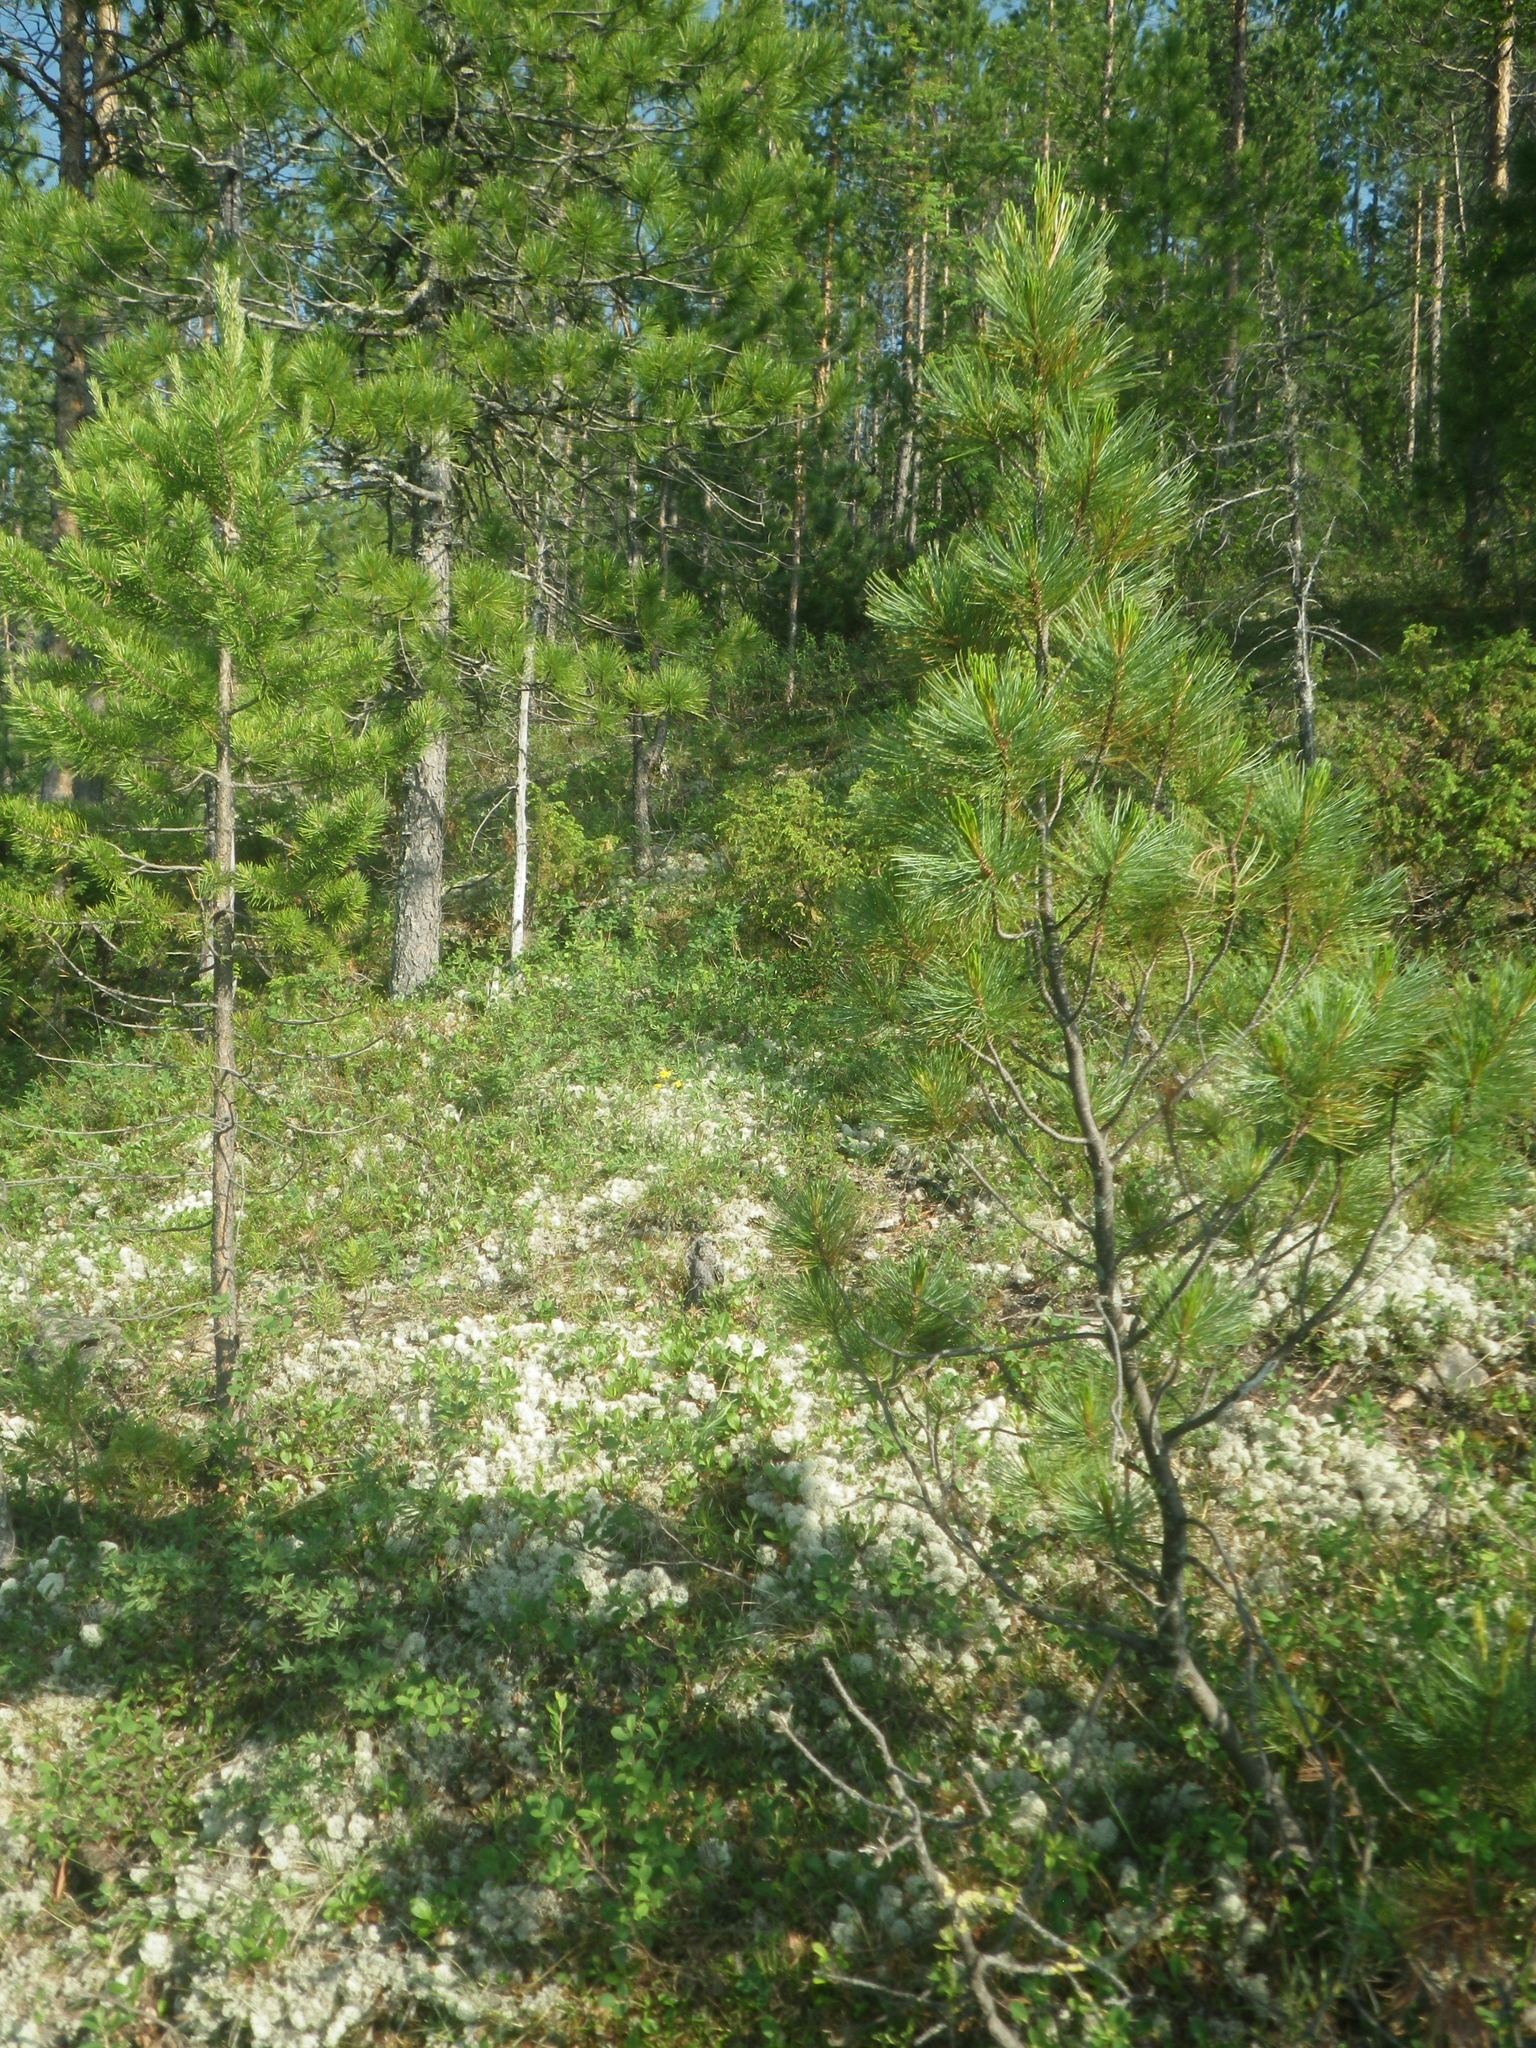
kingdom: Plantae
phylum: Tracheophyta
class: Pinopsida
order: Pinales
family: Pinaceae
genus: Pinus
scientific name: Pinus sylvestris
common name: Scots pine
